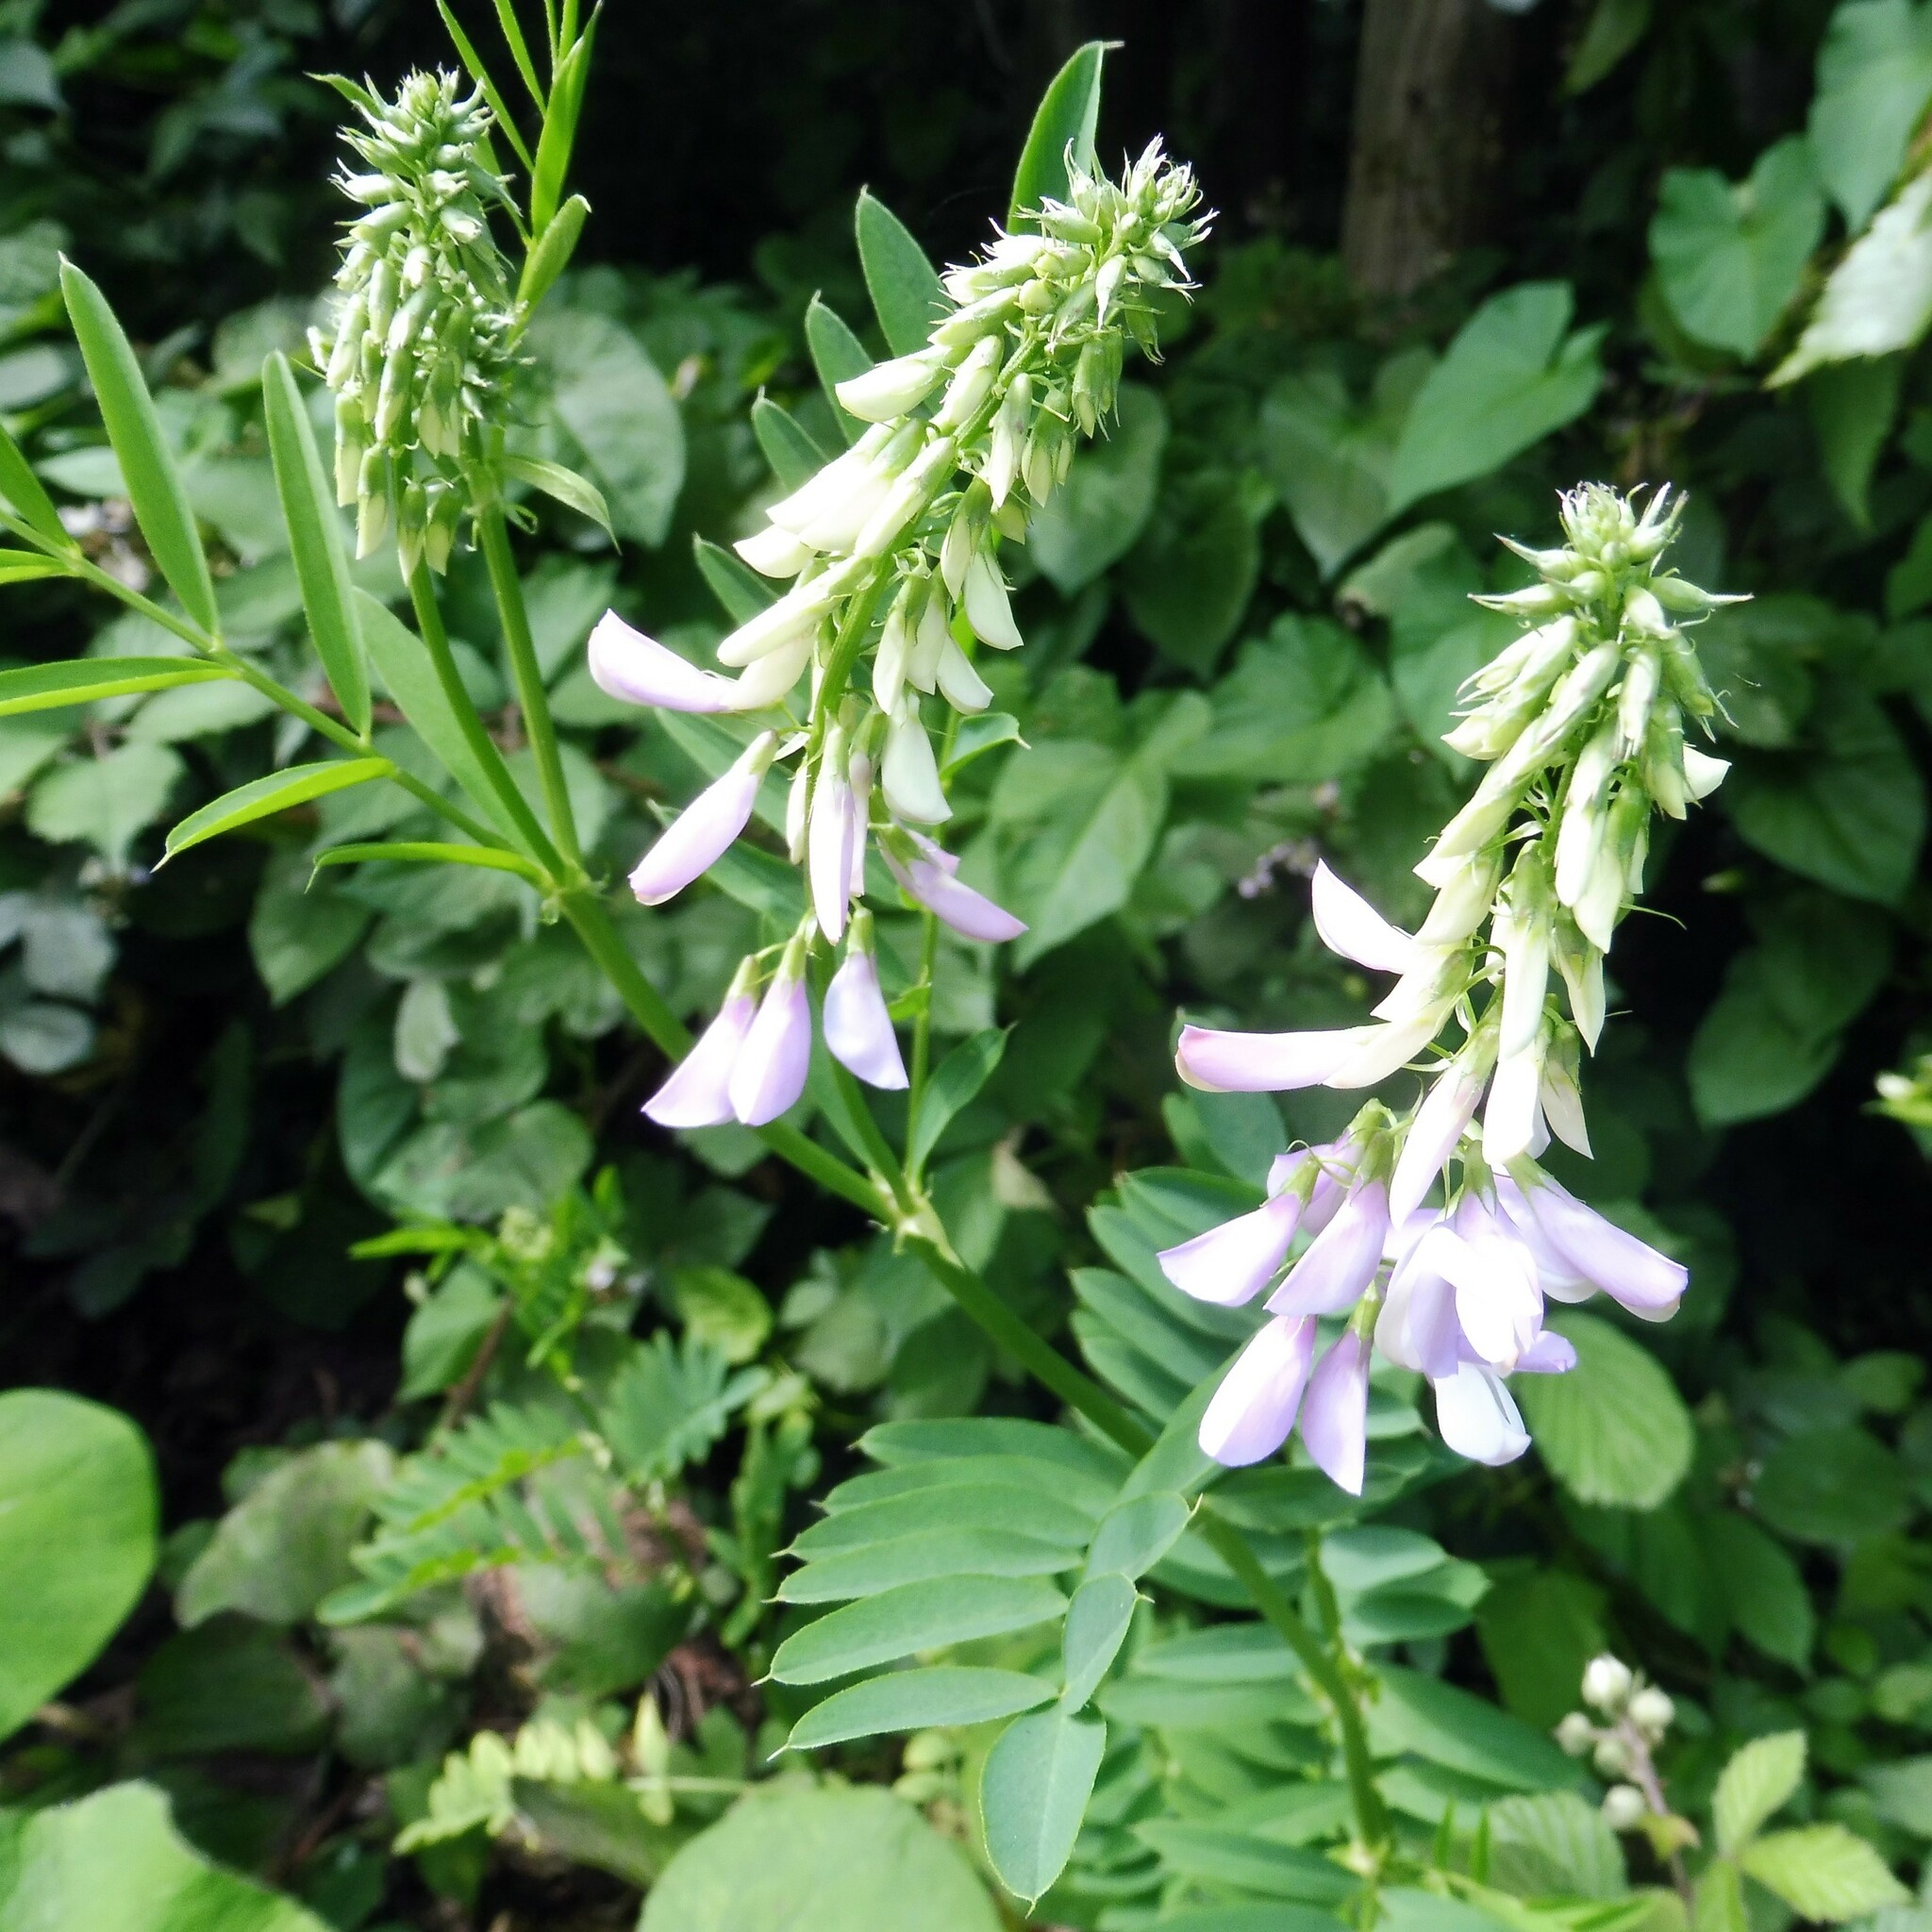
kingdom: Plantae
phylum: Tracheophyta
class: Magnoliopsida
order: Fabales
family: Fabaceae
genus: Galega
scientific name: Galega officinalis
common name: Goat's-rue
